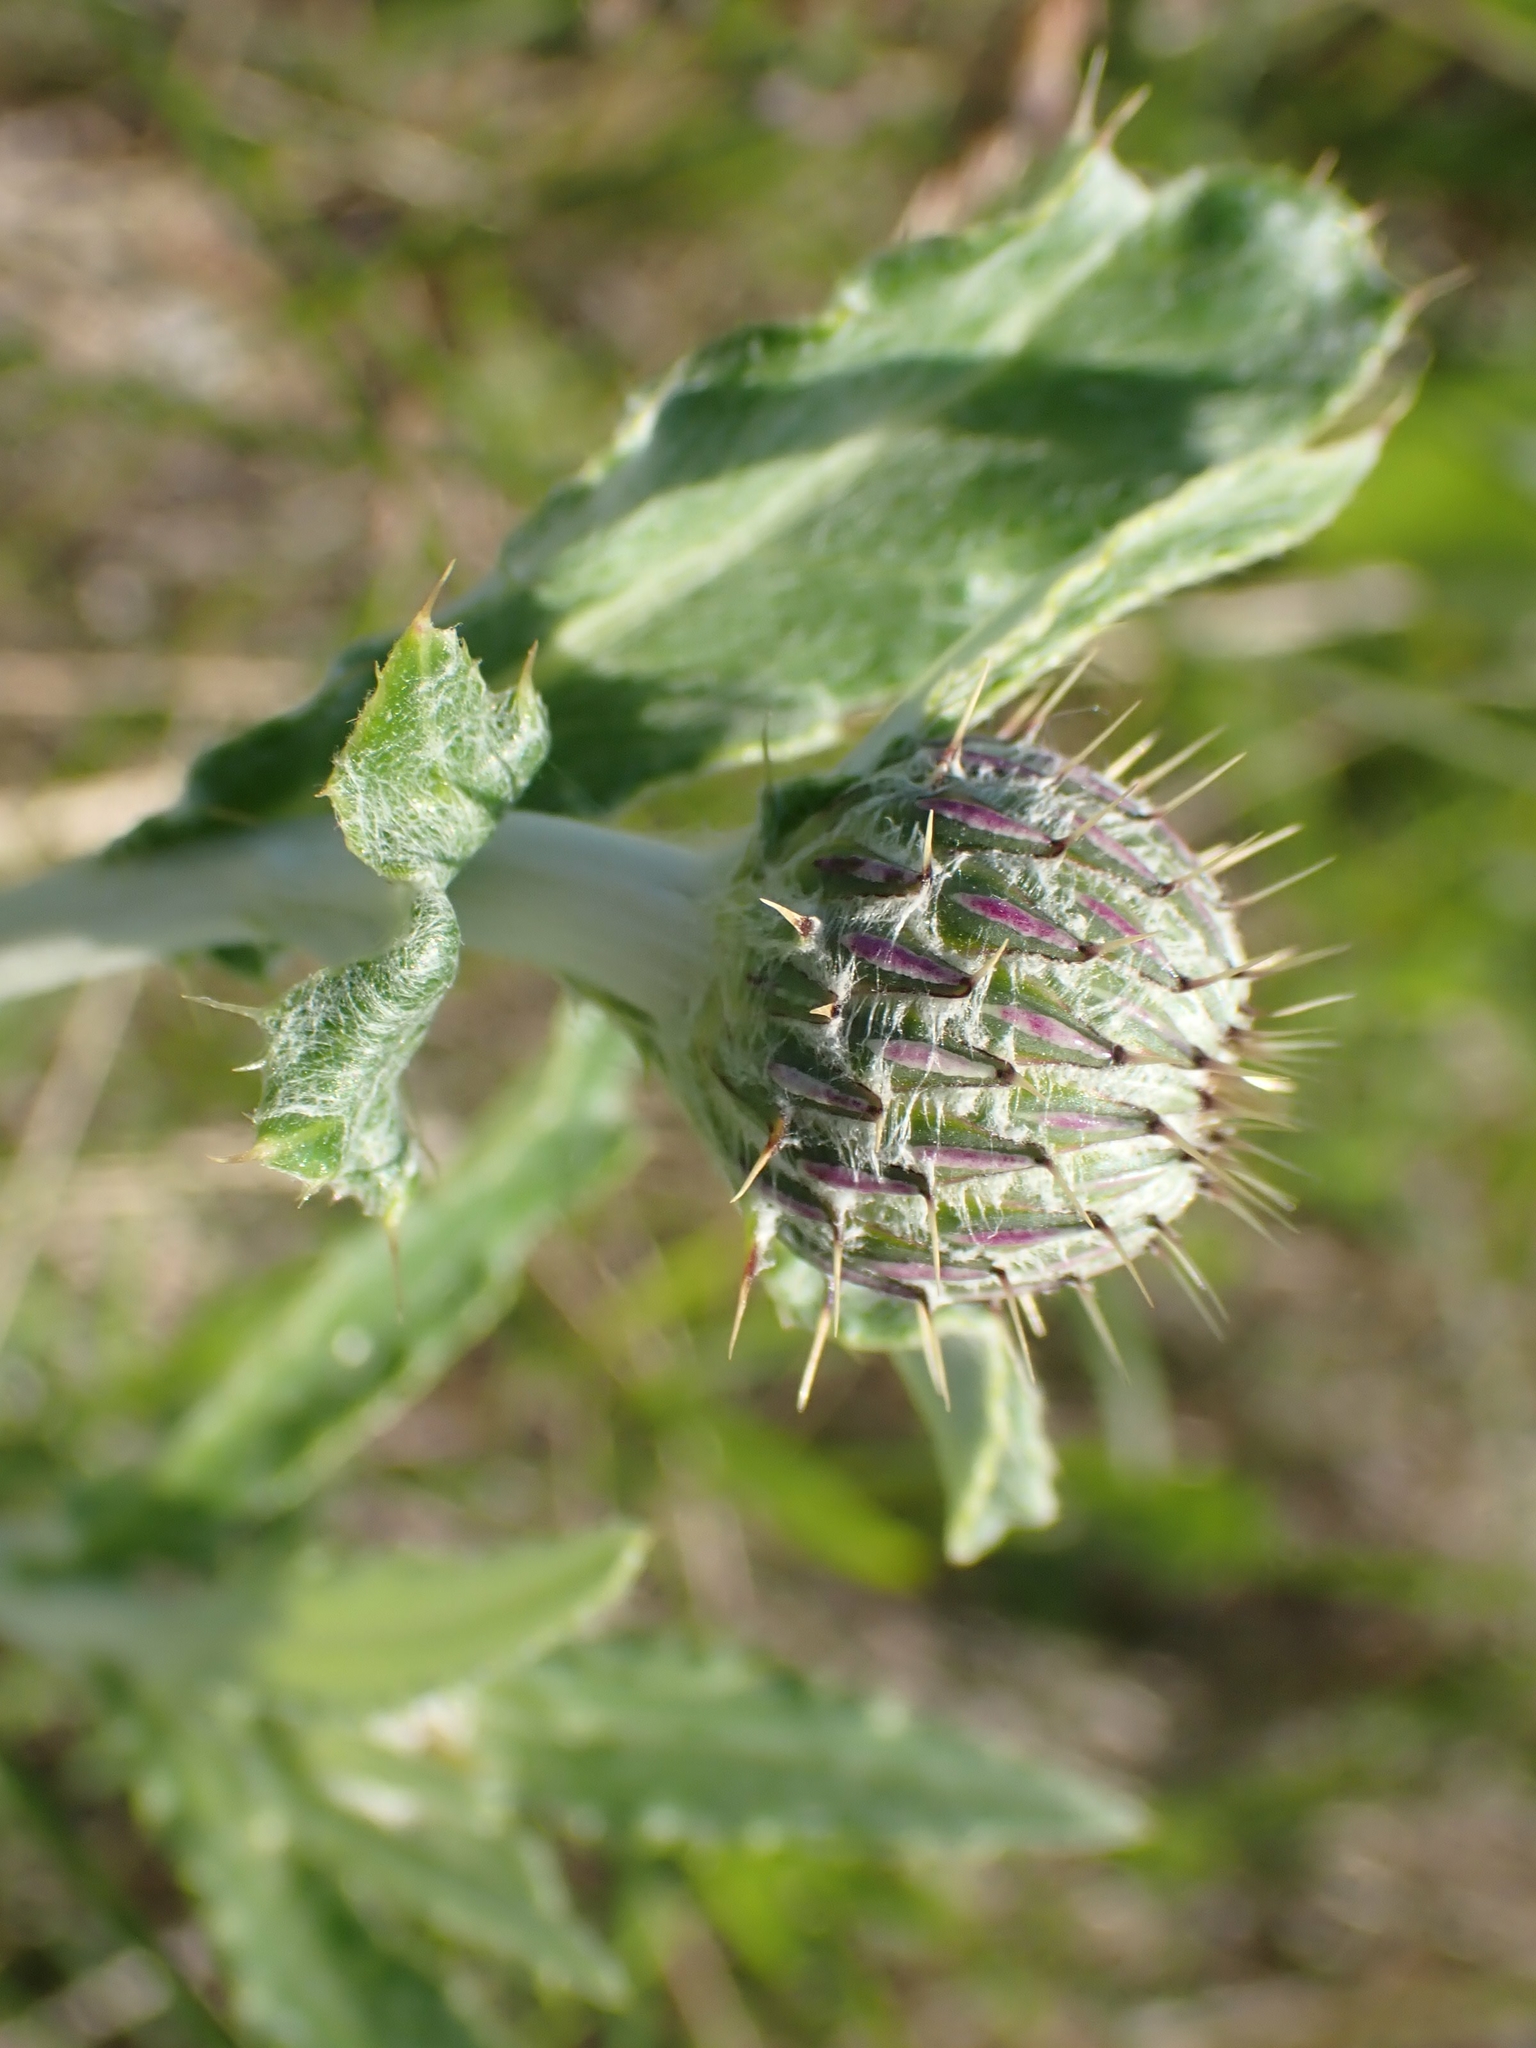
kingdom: Plantae
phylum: Tracheophyta
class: Magnoliopsida
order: Asterales
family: Asteraceae
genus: Cirsium
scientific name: Cirsium flodmanii
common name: Flodman's thistle
